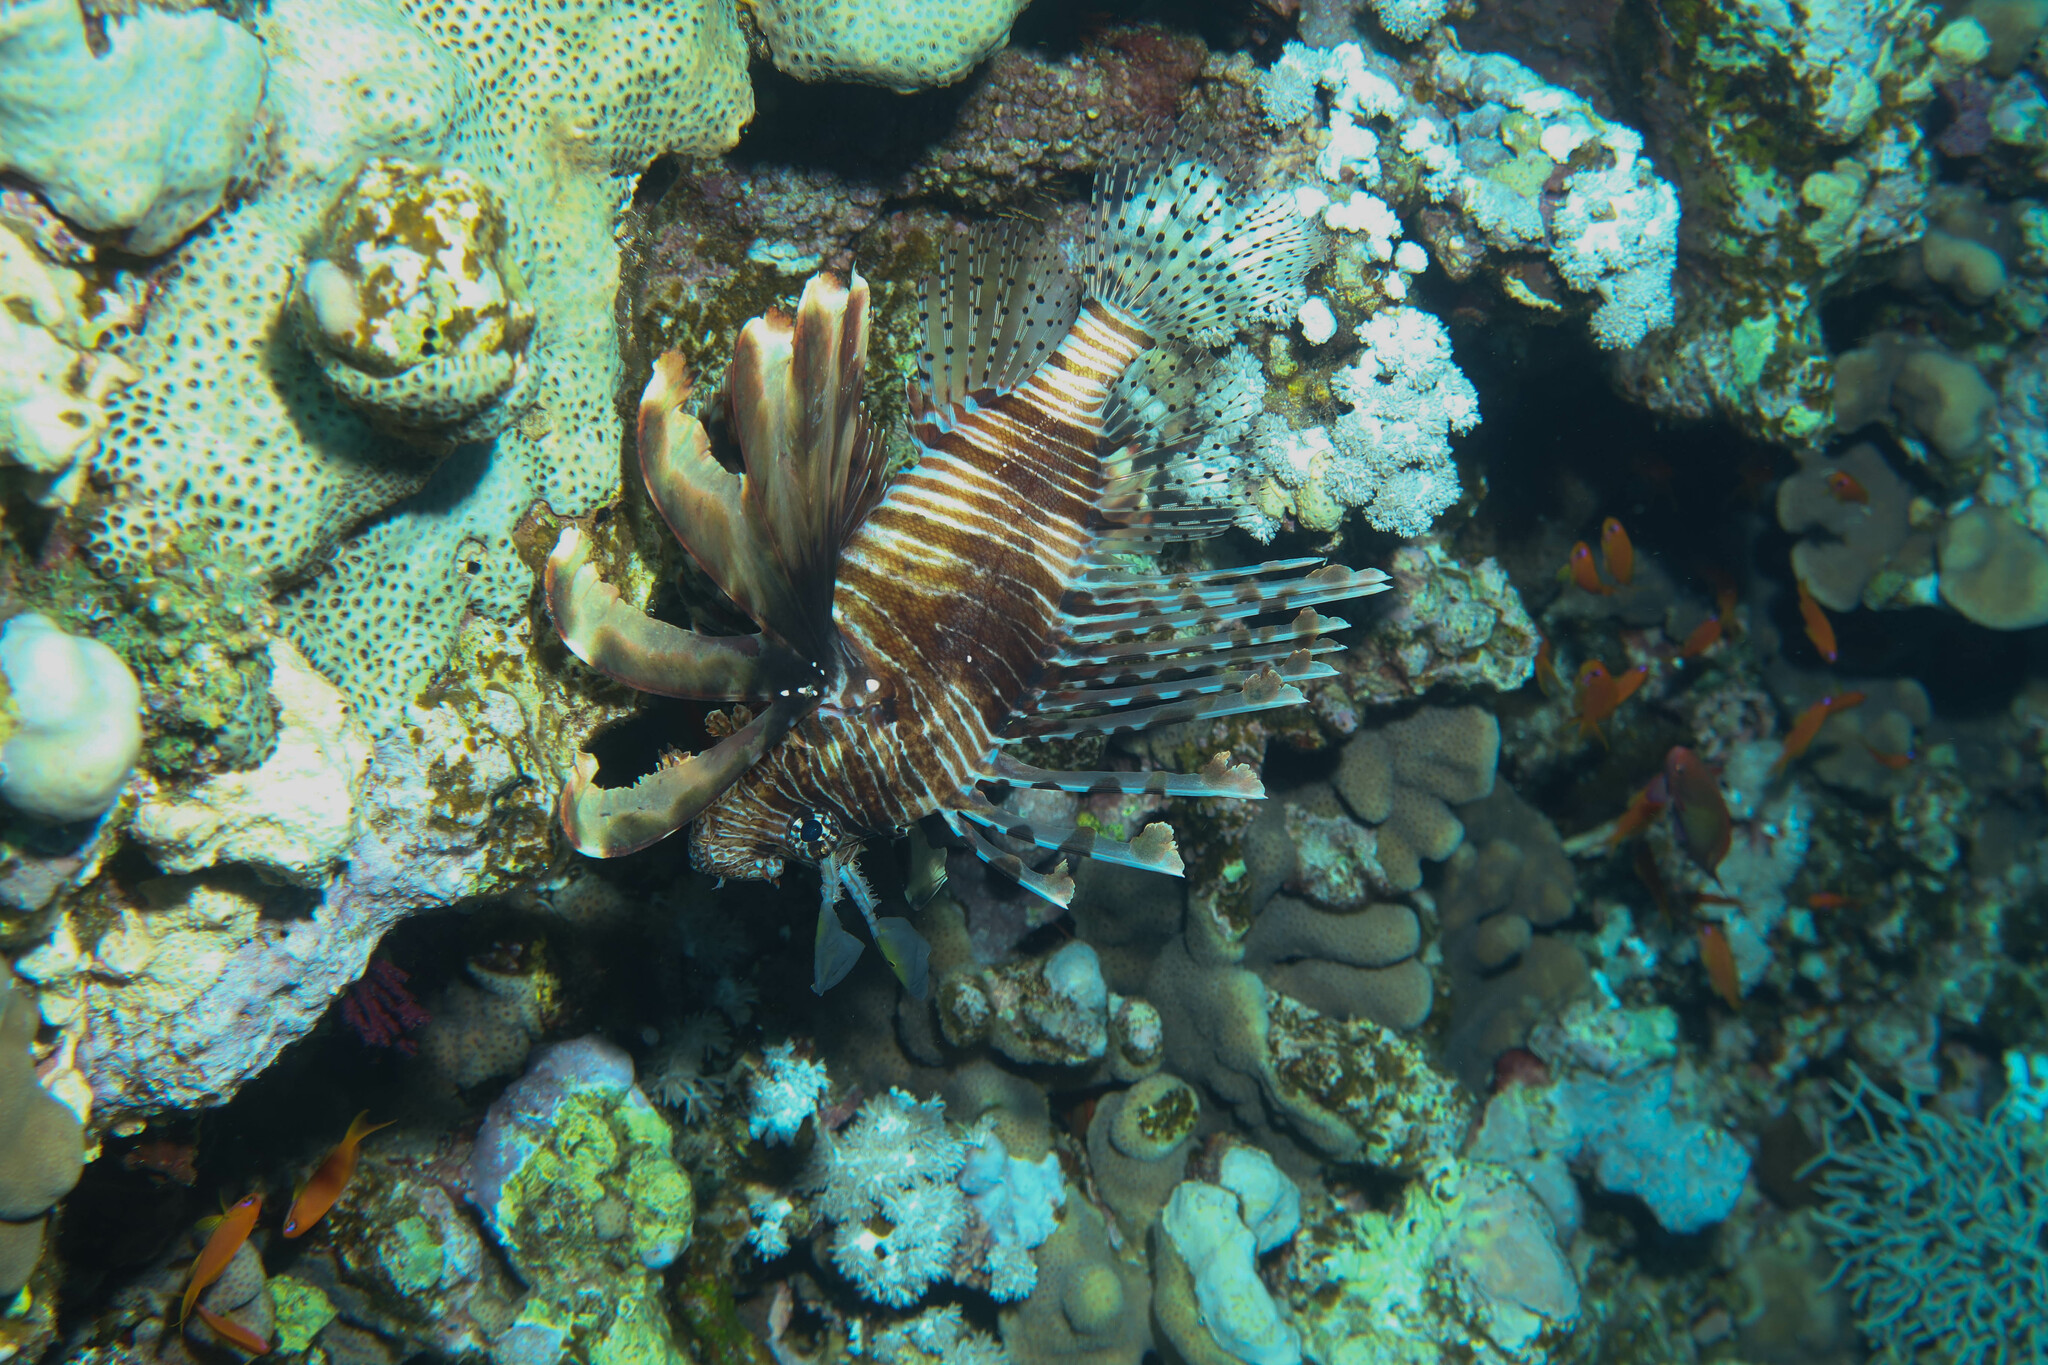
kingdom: Animalia
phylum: Chordata
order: Scorpaeniformes
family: Scorpaenidae
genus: Pterois
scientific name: Pterois miles
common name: Devil firefish
